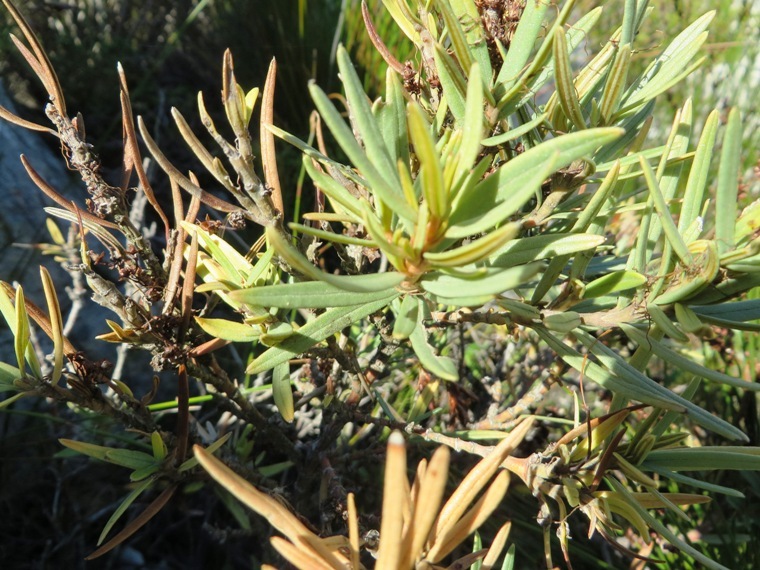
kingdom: Plantae
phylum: Tracheophyta
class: Magnoliopsida
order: Cornales
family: Grubbiaceae
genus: Grubbia
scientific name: Grubbia tomentosa
